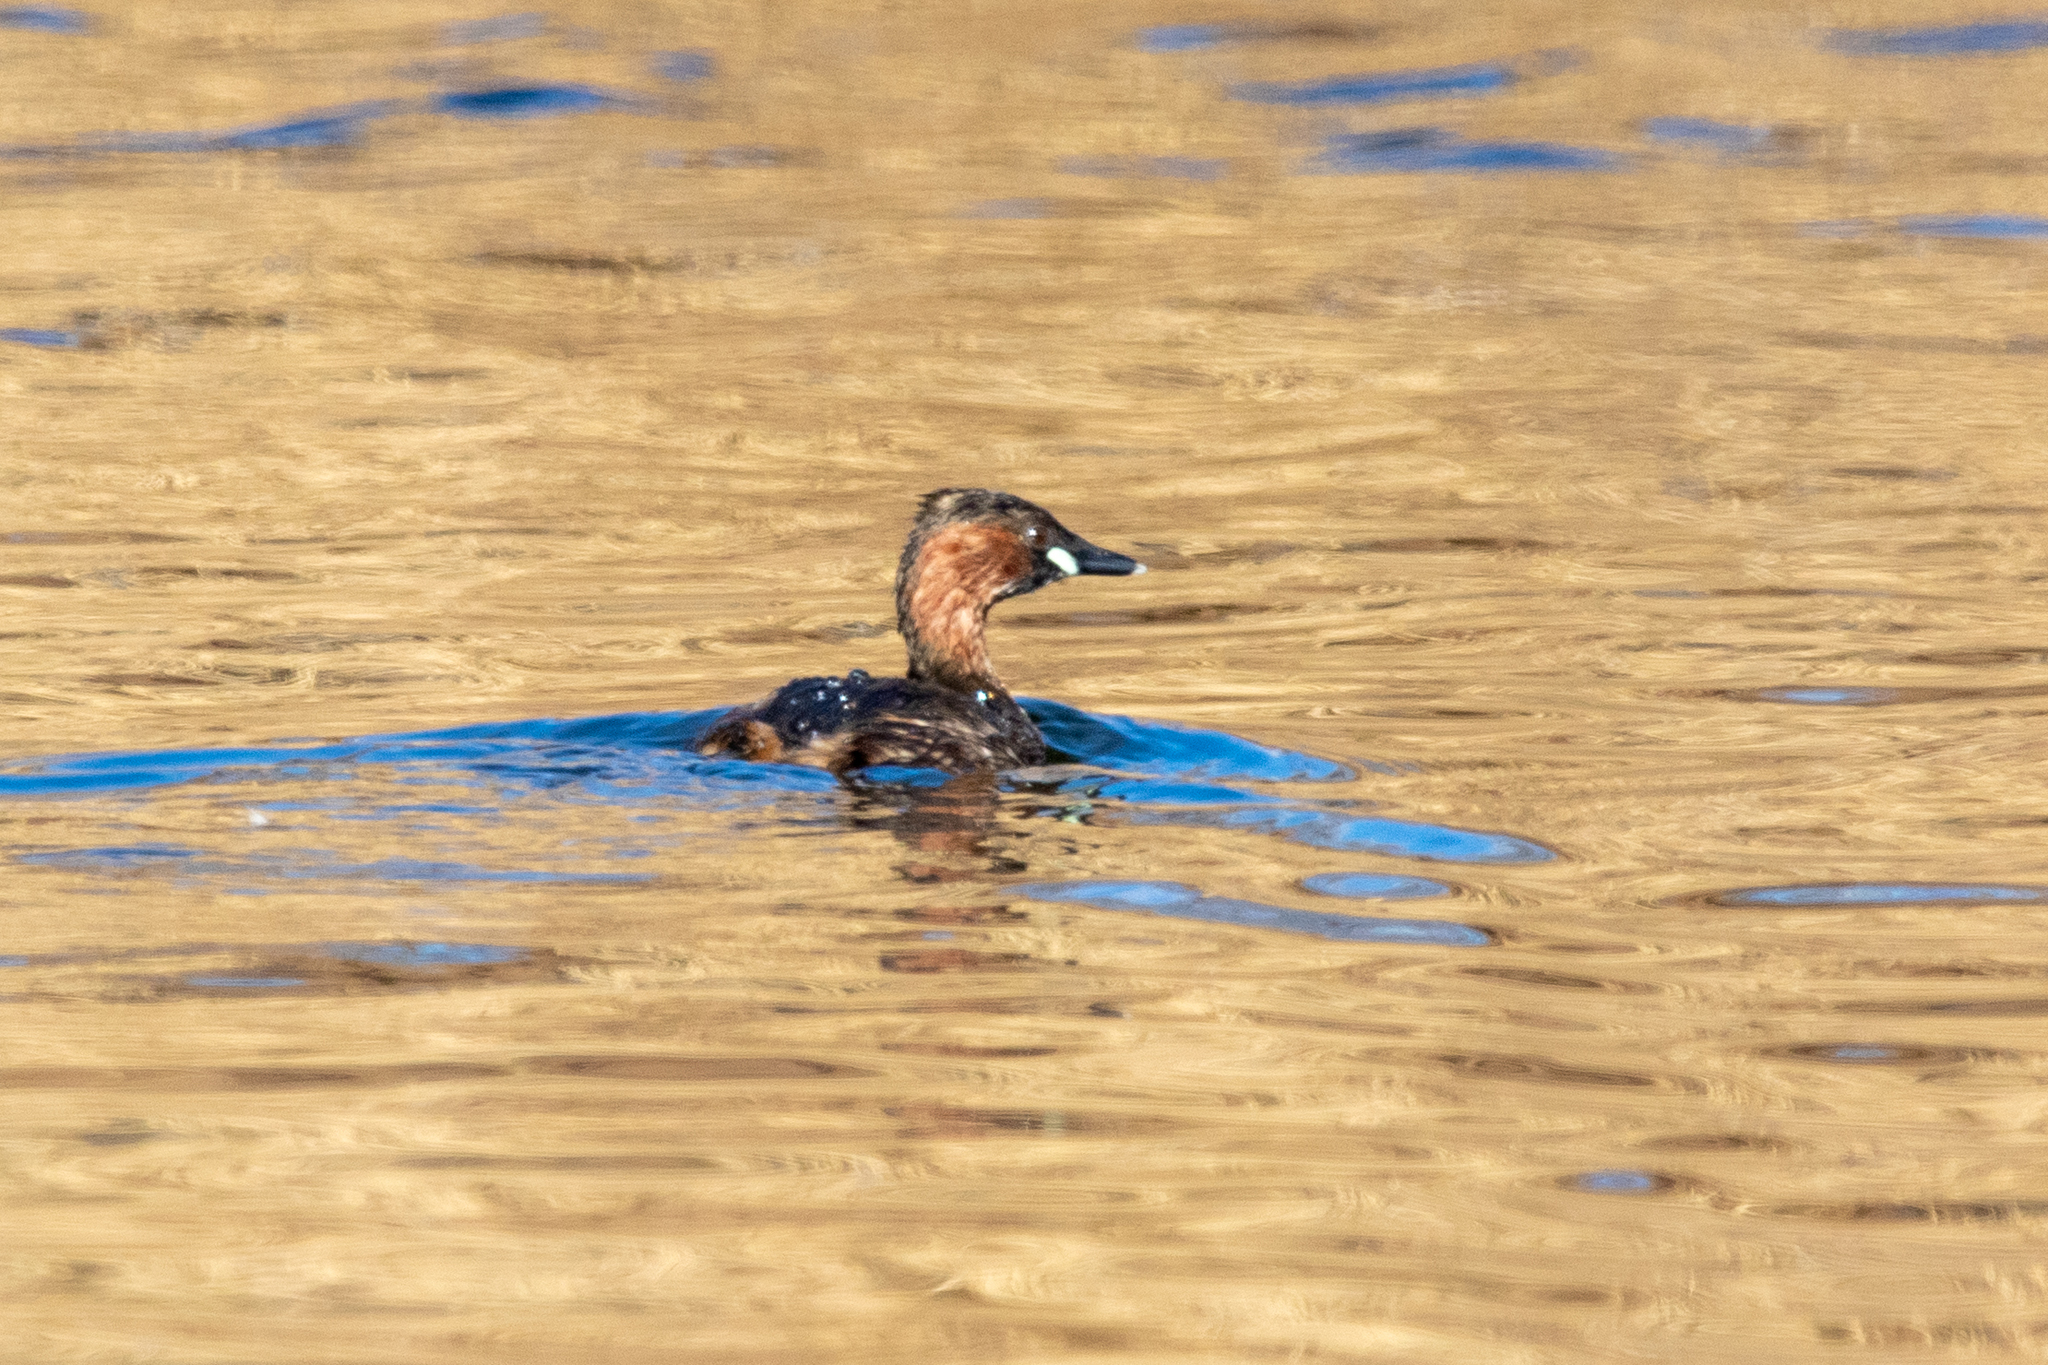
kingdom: Animalia
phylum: Chordata
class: Aves
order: Podicipediformes
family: Podicipedidae
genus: Tachybaptus
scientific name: Tachybaptus ruficollis
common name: Little grebe
